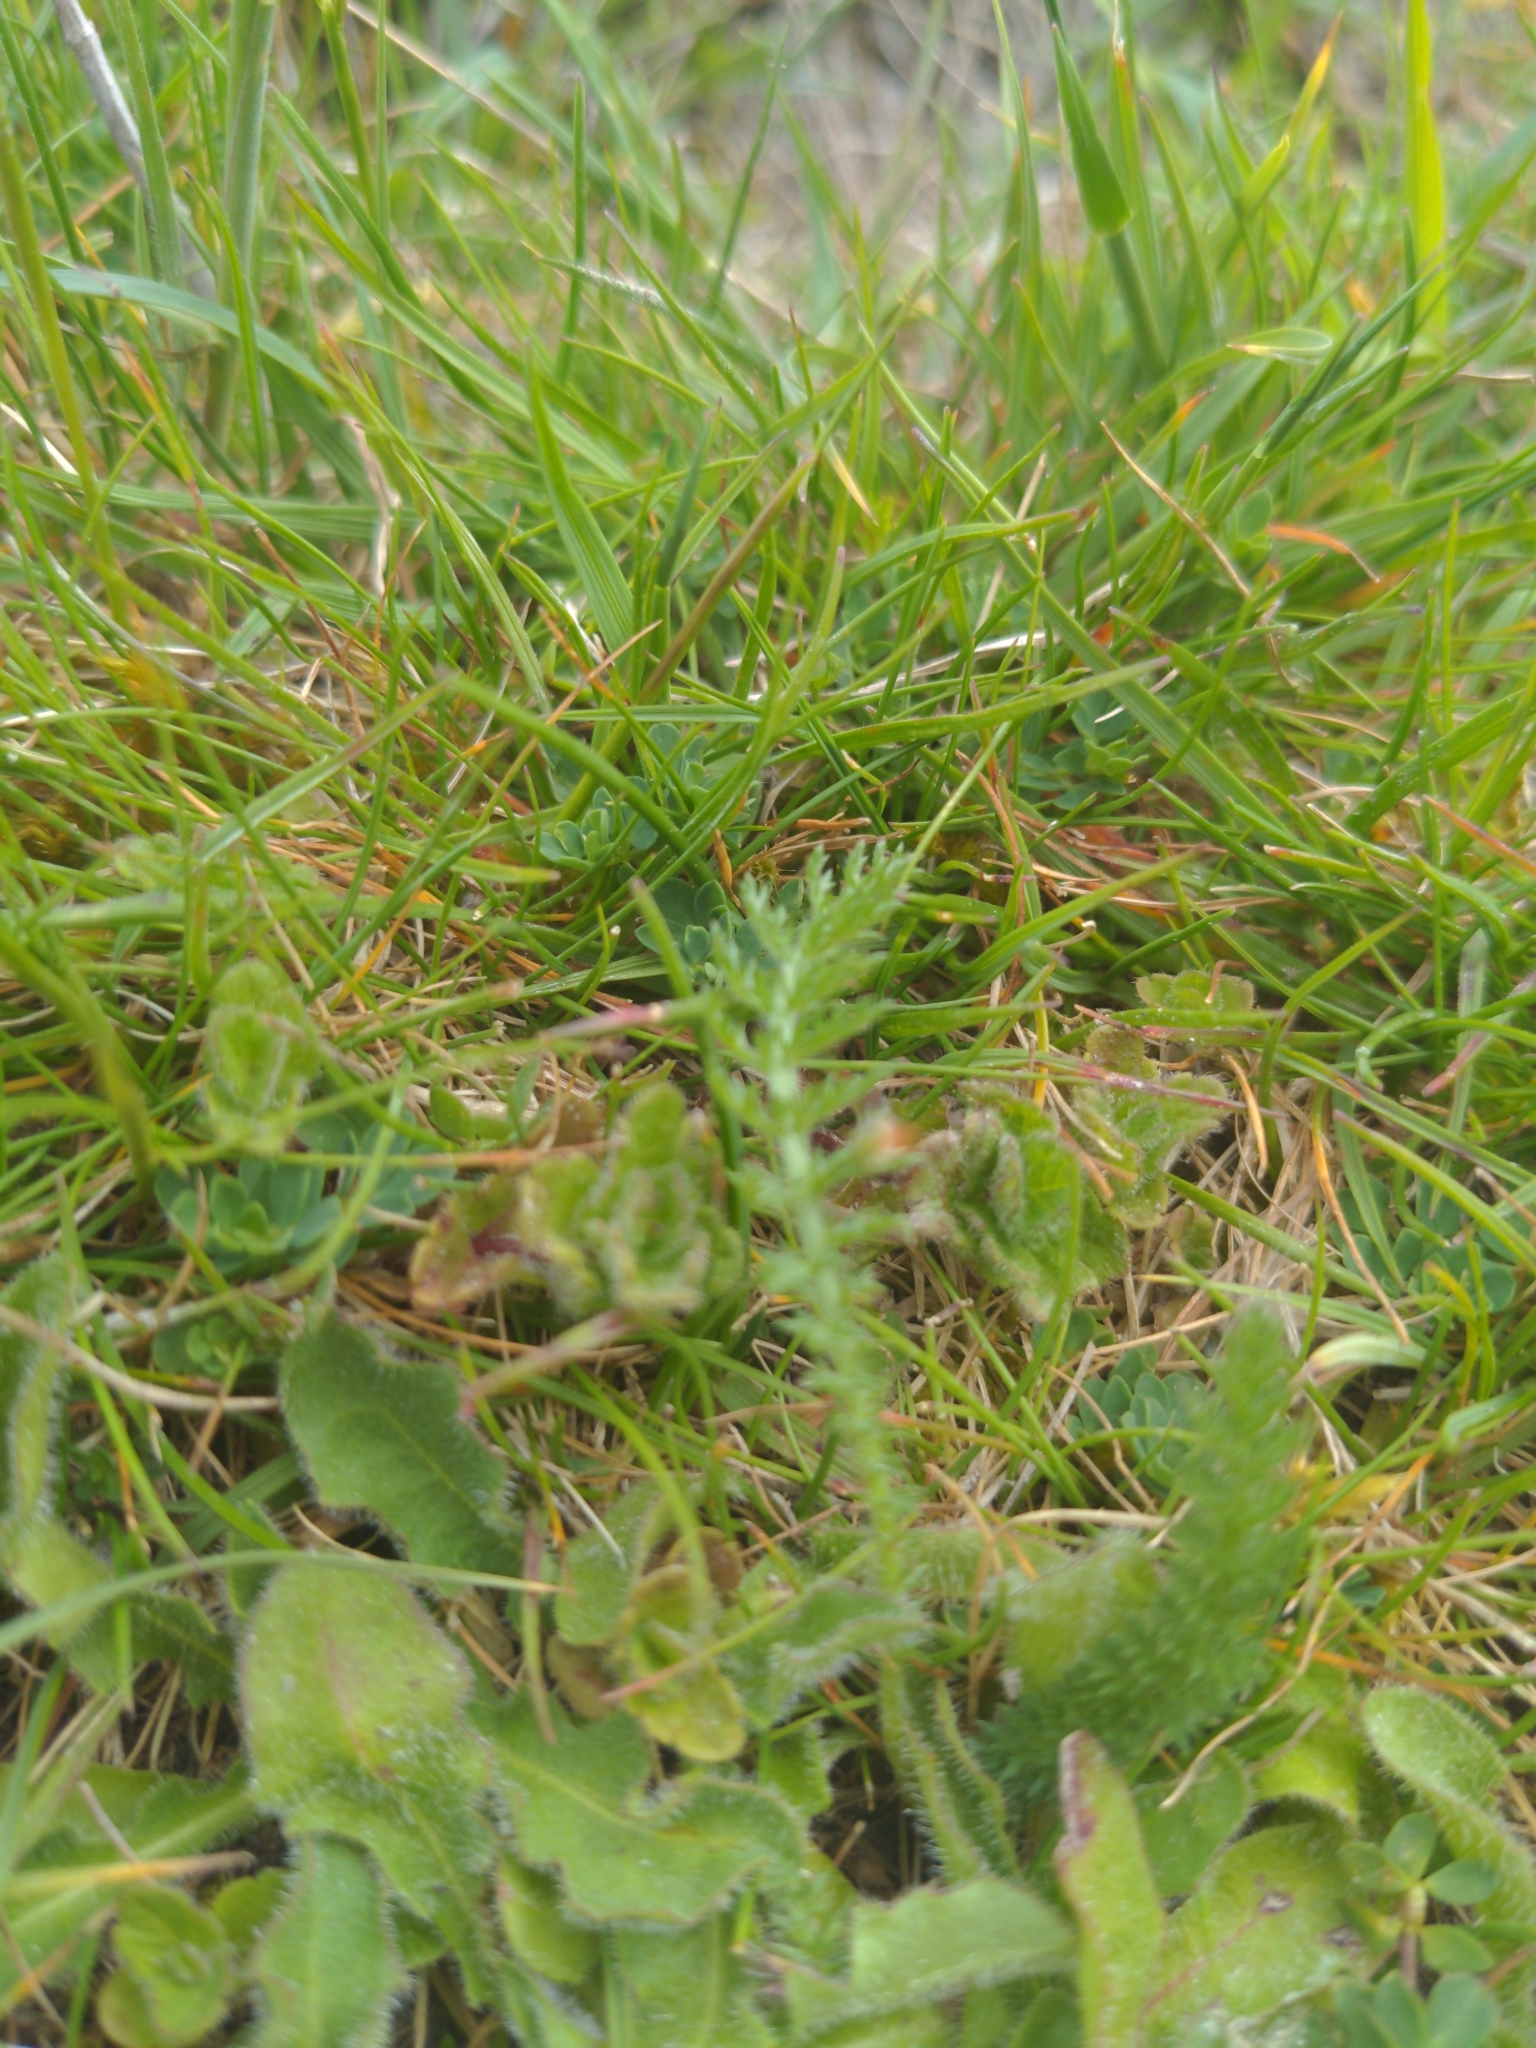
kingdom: Plantae
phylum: Tracheophyta
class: Magnoliopsida
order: Asterales
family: Asteraceae
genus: Achillea
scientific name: Achillea millefolium
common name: Yarrow
